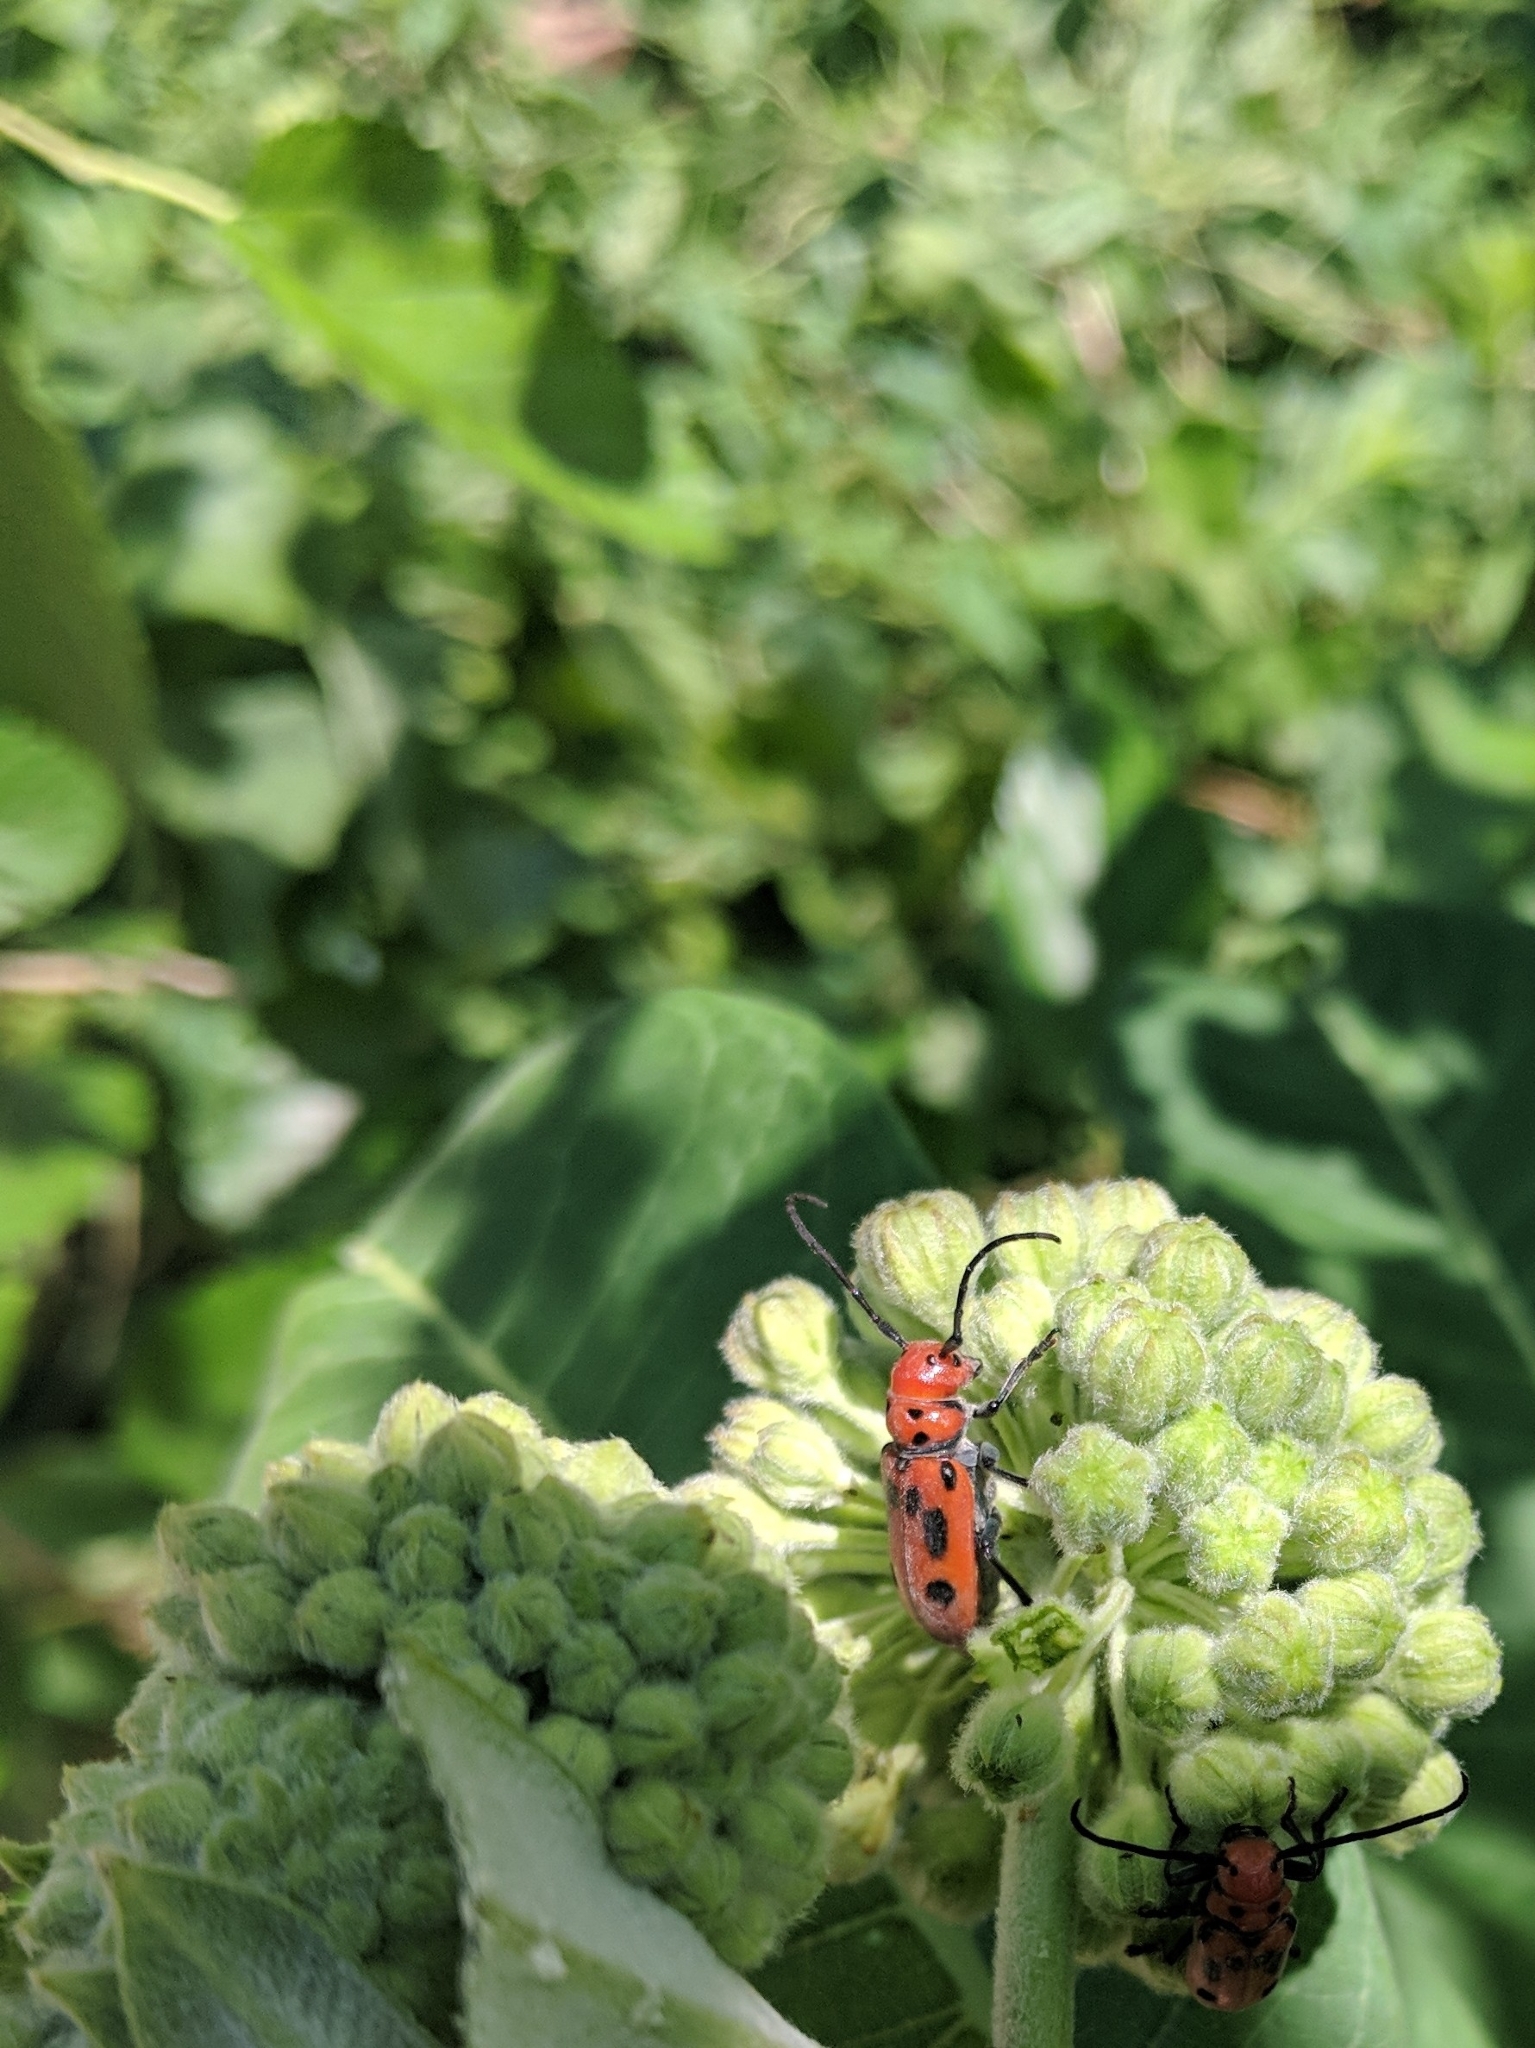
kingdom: Animalia
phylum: Arthropoda
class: Insecta
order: Coleoptera
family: Cerambycidae
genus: Tetraopes
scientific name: Tetraopes tetrophthalmus
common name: Red milkweed beetle
